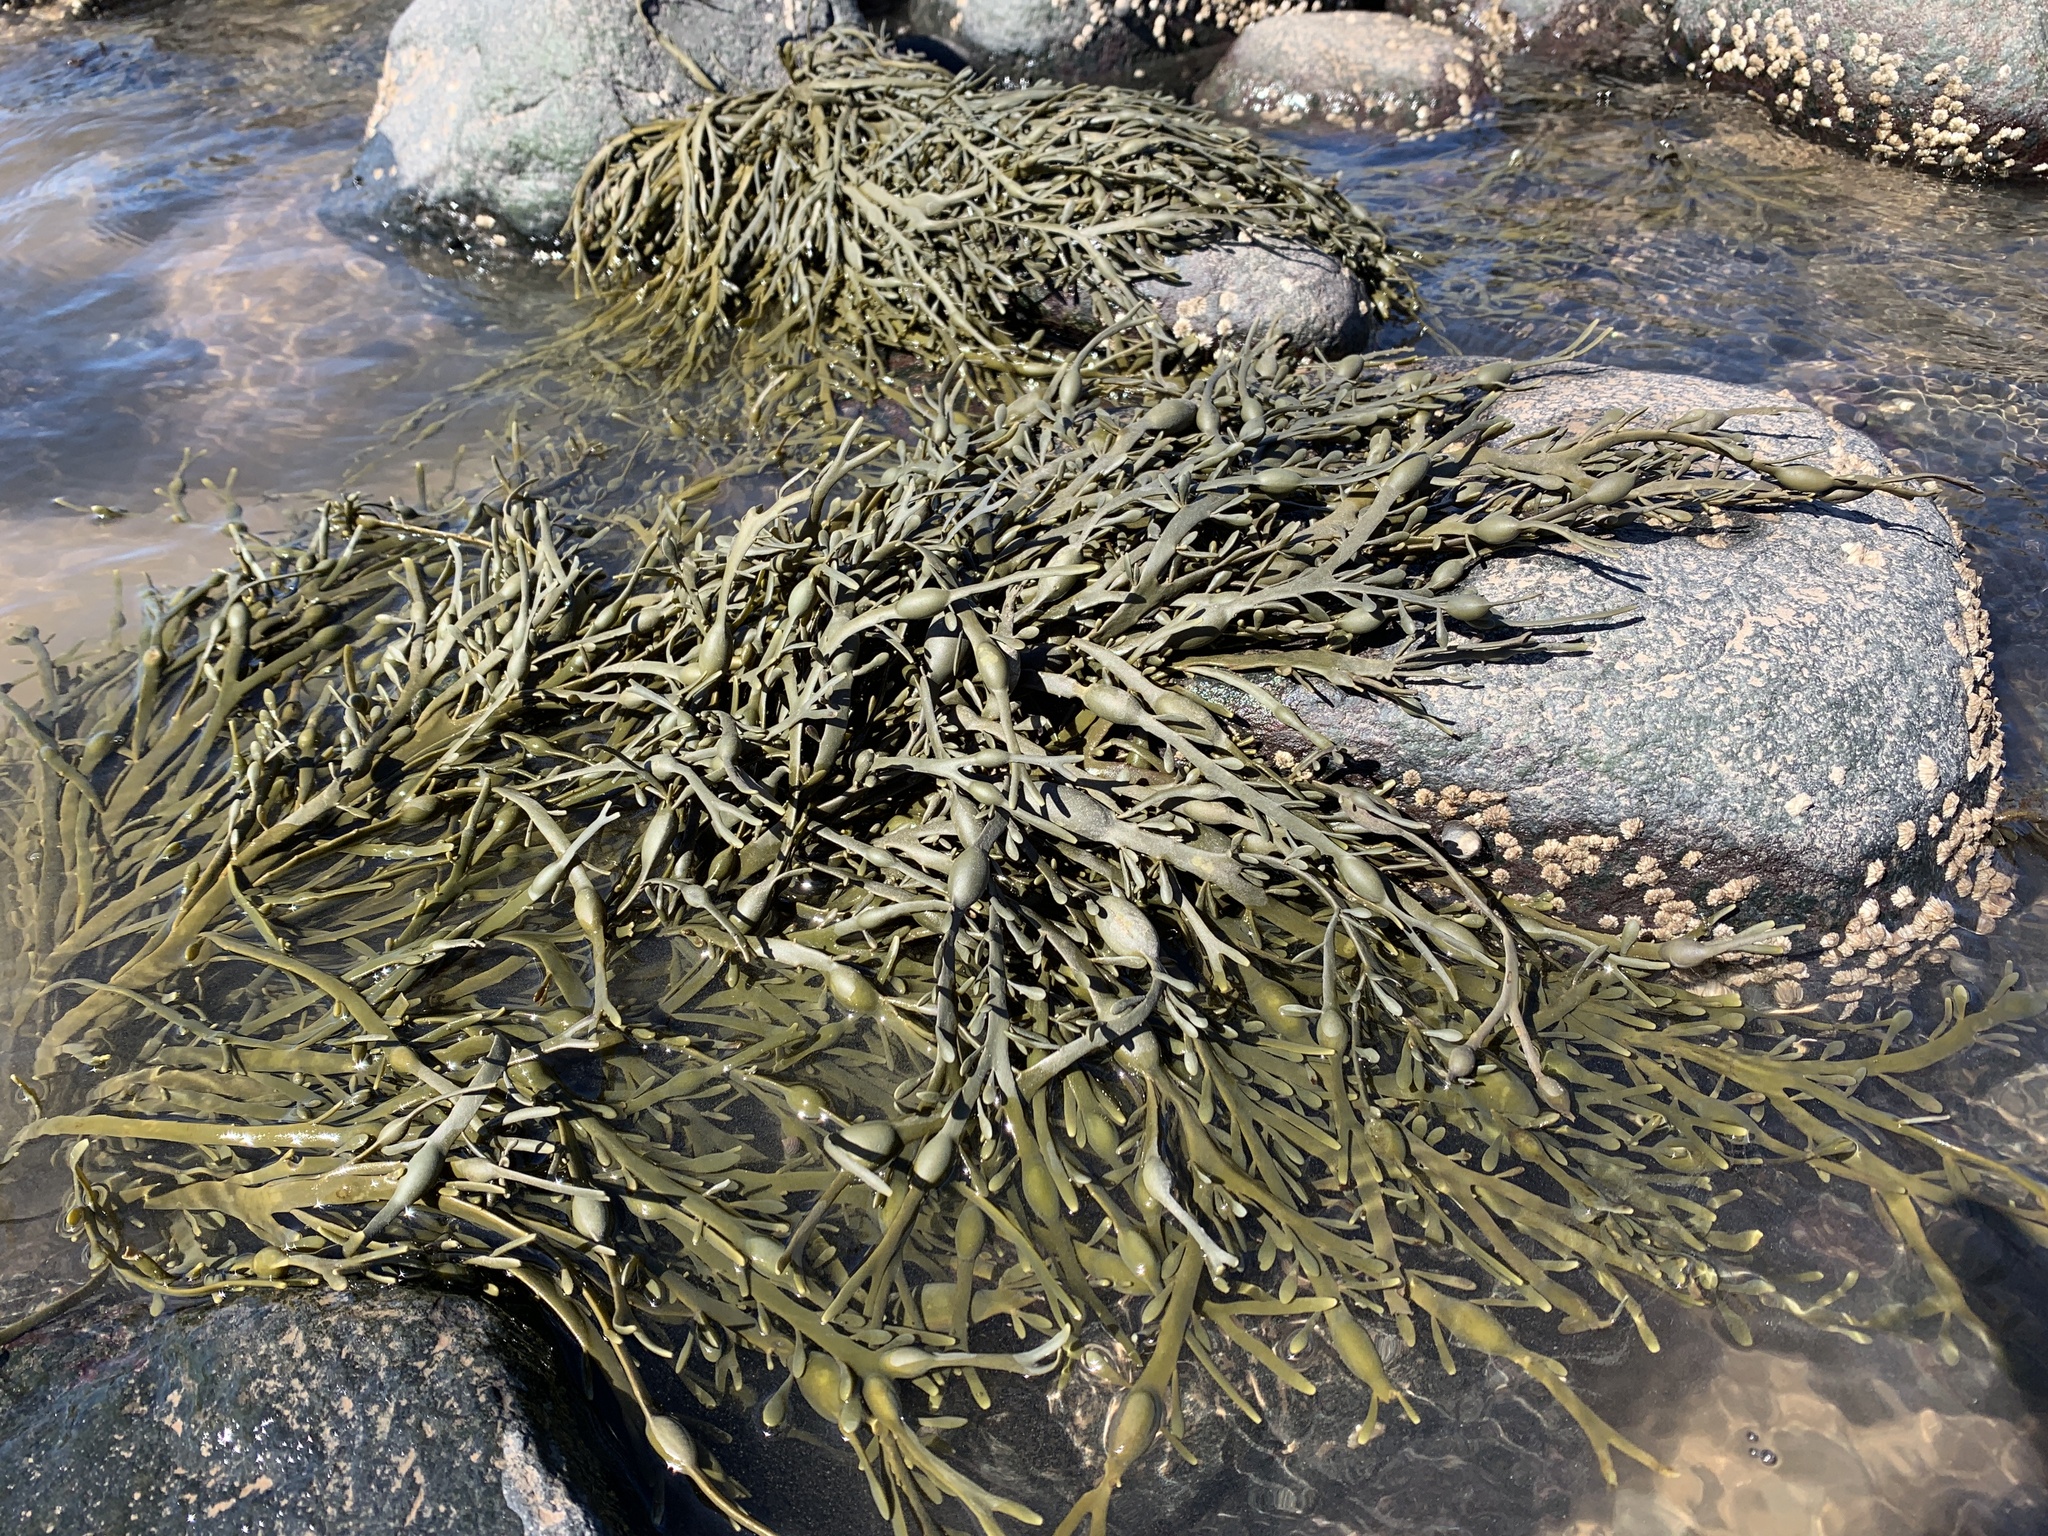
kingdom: Chromista
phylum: Ochrophyta
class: Phaeophyceae
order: Fucales
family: Fucaceae
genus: Ascophyllum
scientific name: Ascophyllum nodosum
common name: Knotted wrack
